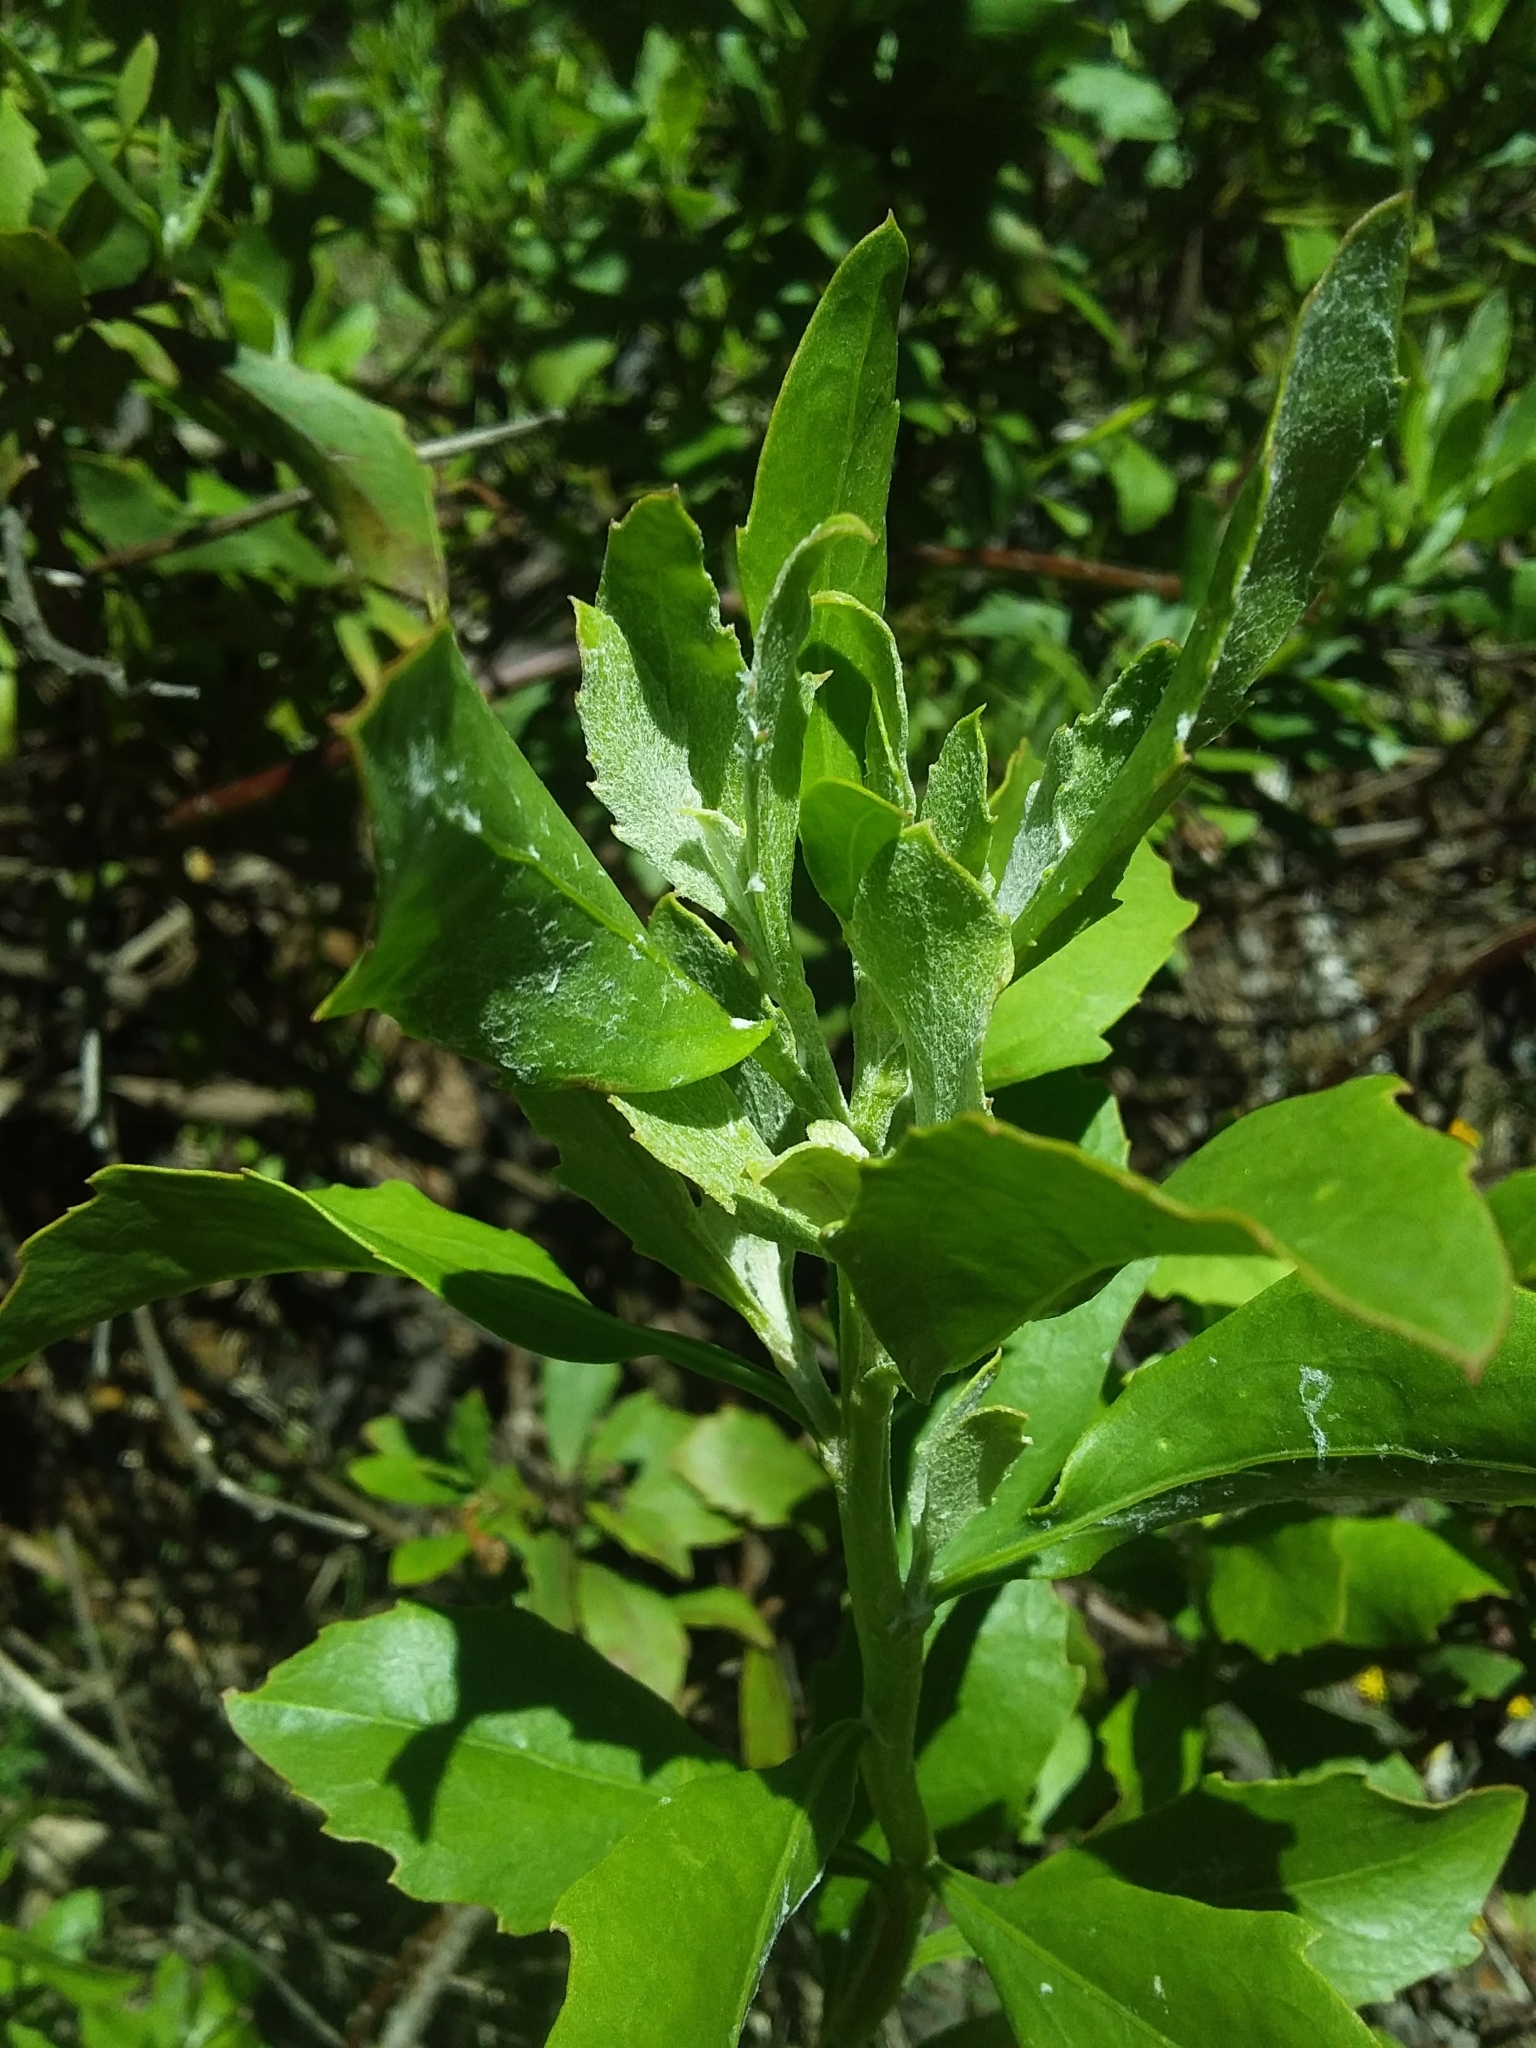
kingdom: Plantae
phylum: Tracheophyta
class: Magnoliopsida
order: Asterales
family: Asteraceae
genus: Osteospermum
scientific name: Osteospermum moniliferum
